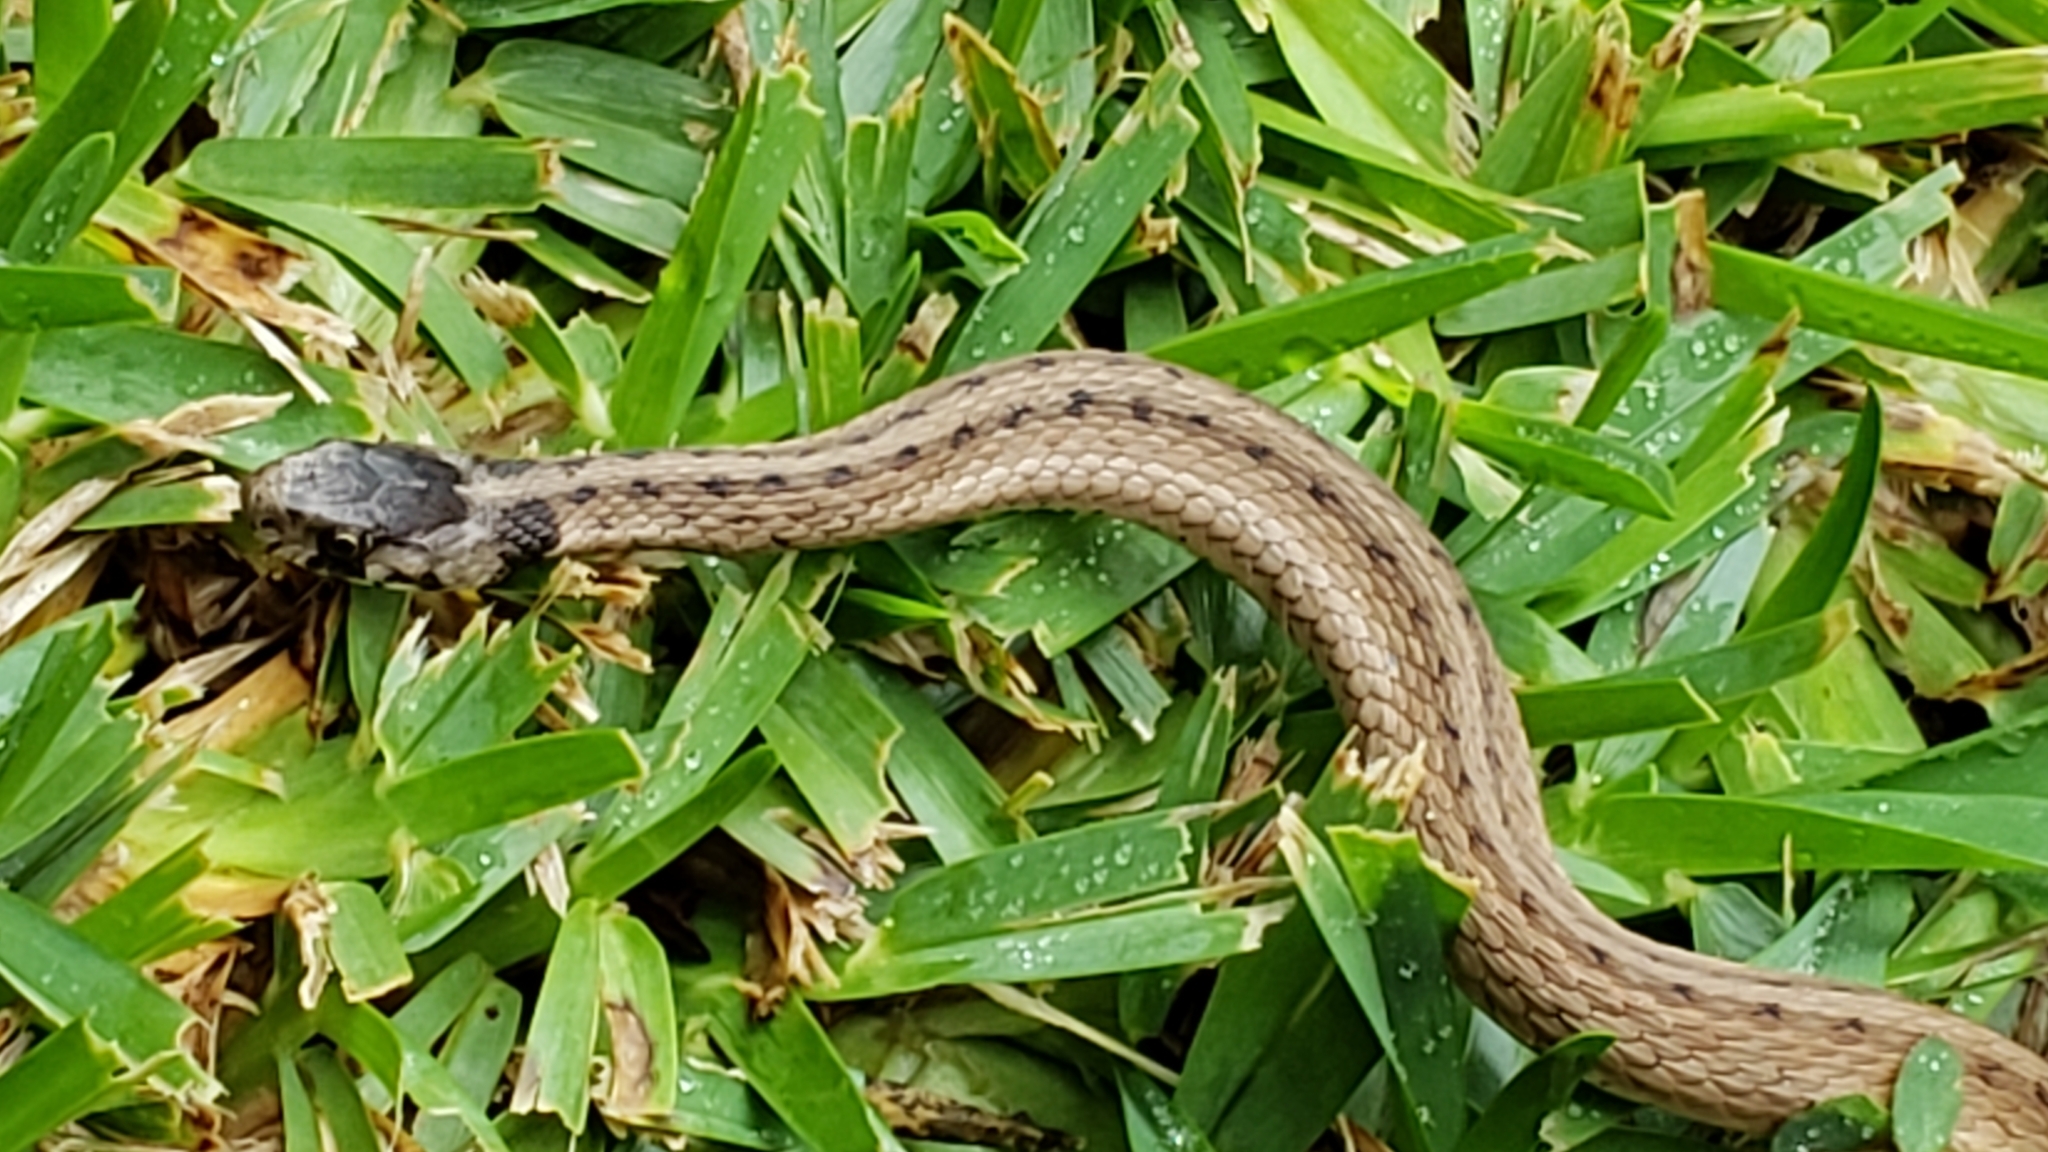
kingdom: Animalia
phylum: Chordata
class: Squamata
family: Colubridae
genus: Storeria
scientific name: Storeria dekayi
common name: (dekay’s) brown snake
